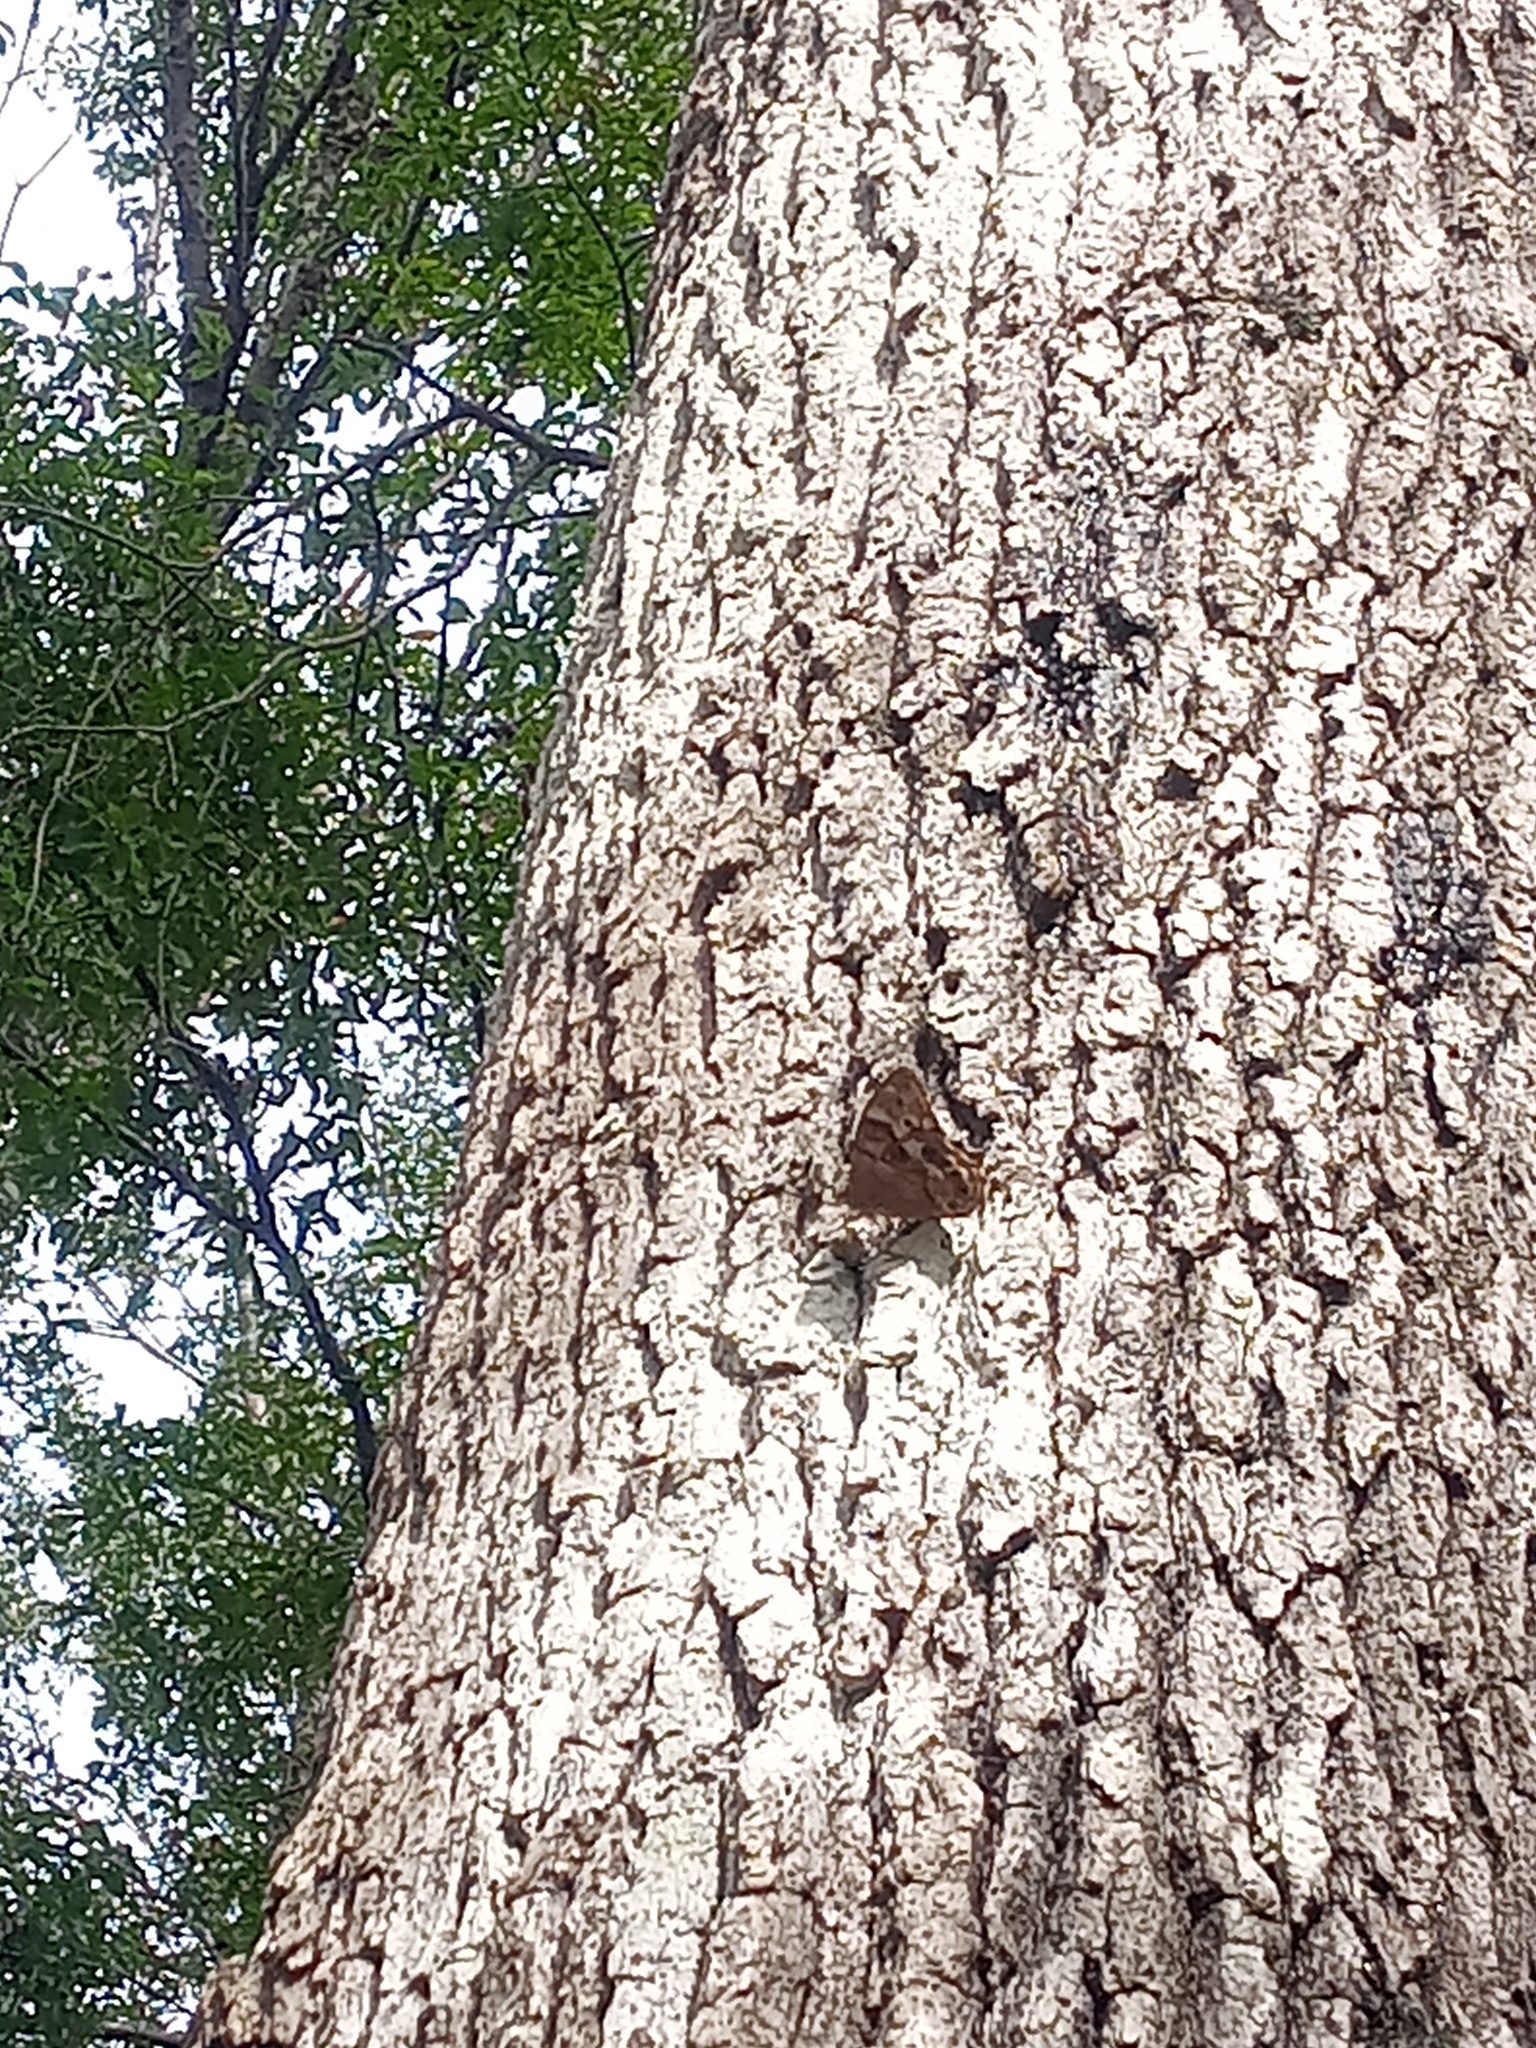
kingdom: Animalia
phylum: Arthropoda
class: Insecta
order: Lepidoptera
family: Nymphalidae
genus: Enodia
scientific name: Enodia portlandia
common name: Southern pearly-eye
